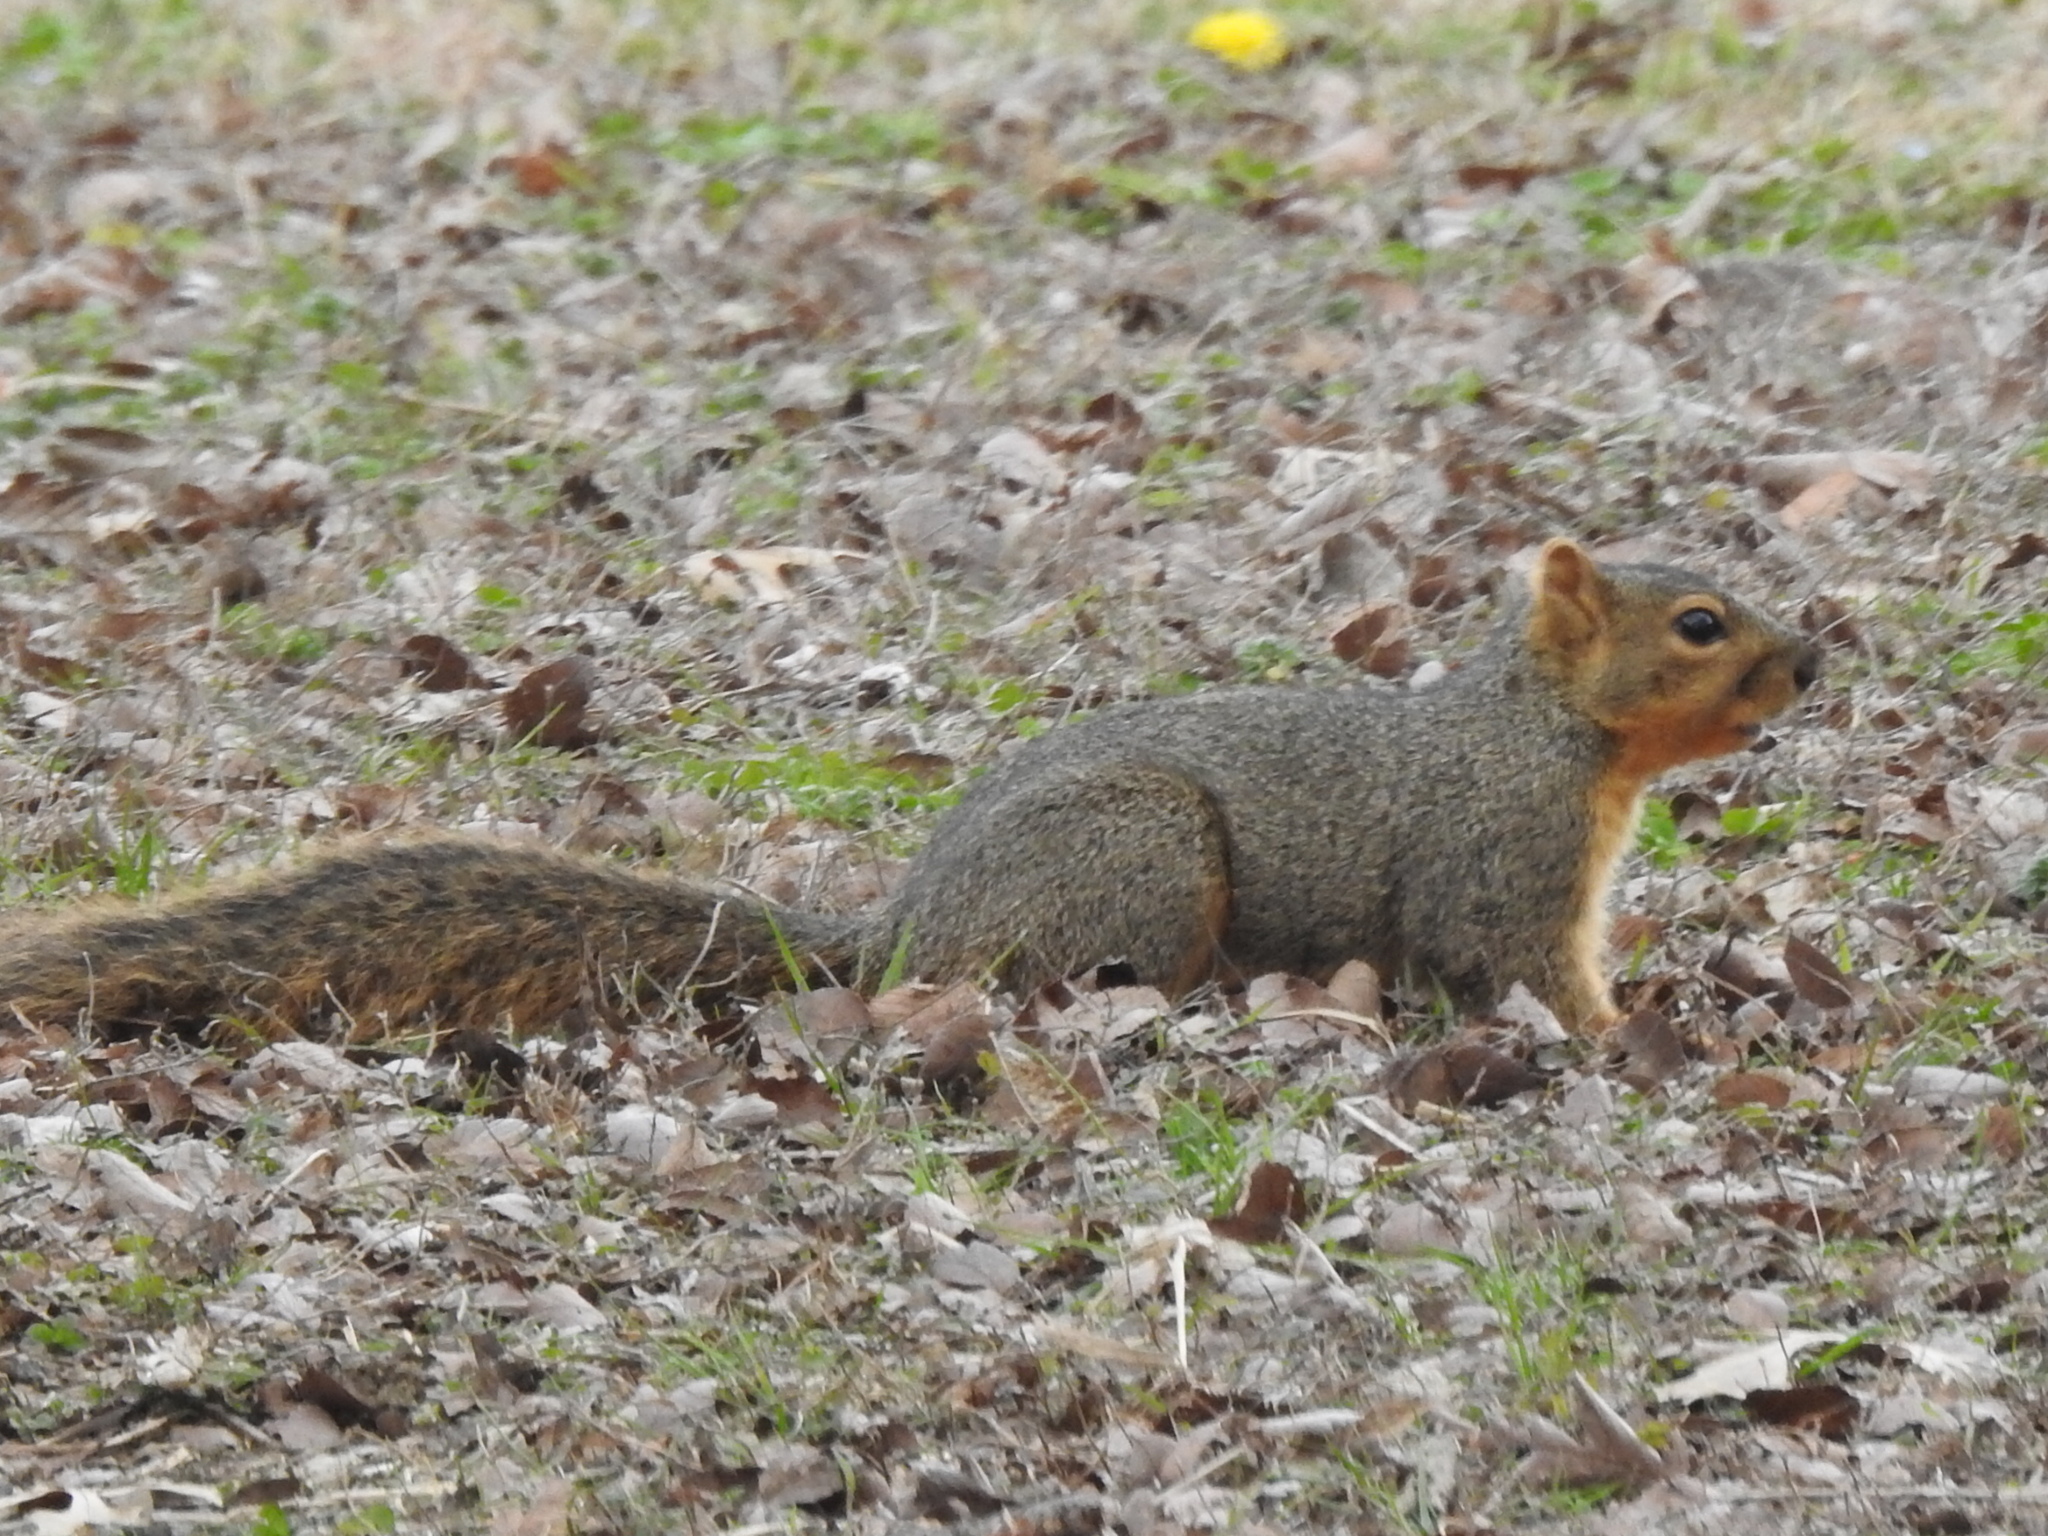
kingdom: Animalia
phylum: Chordata
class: Mammalia
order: Rodentia
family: Sciuridae
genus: Sciurus
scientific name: Sciurus niger
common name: Fox squirrel
